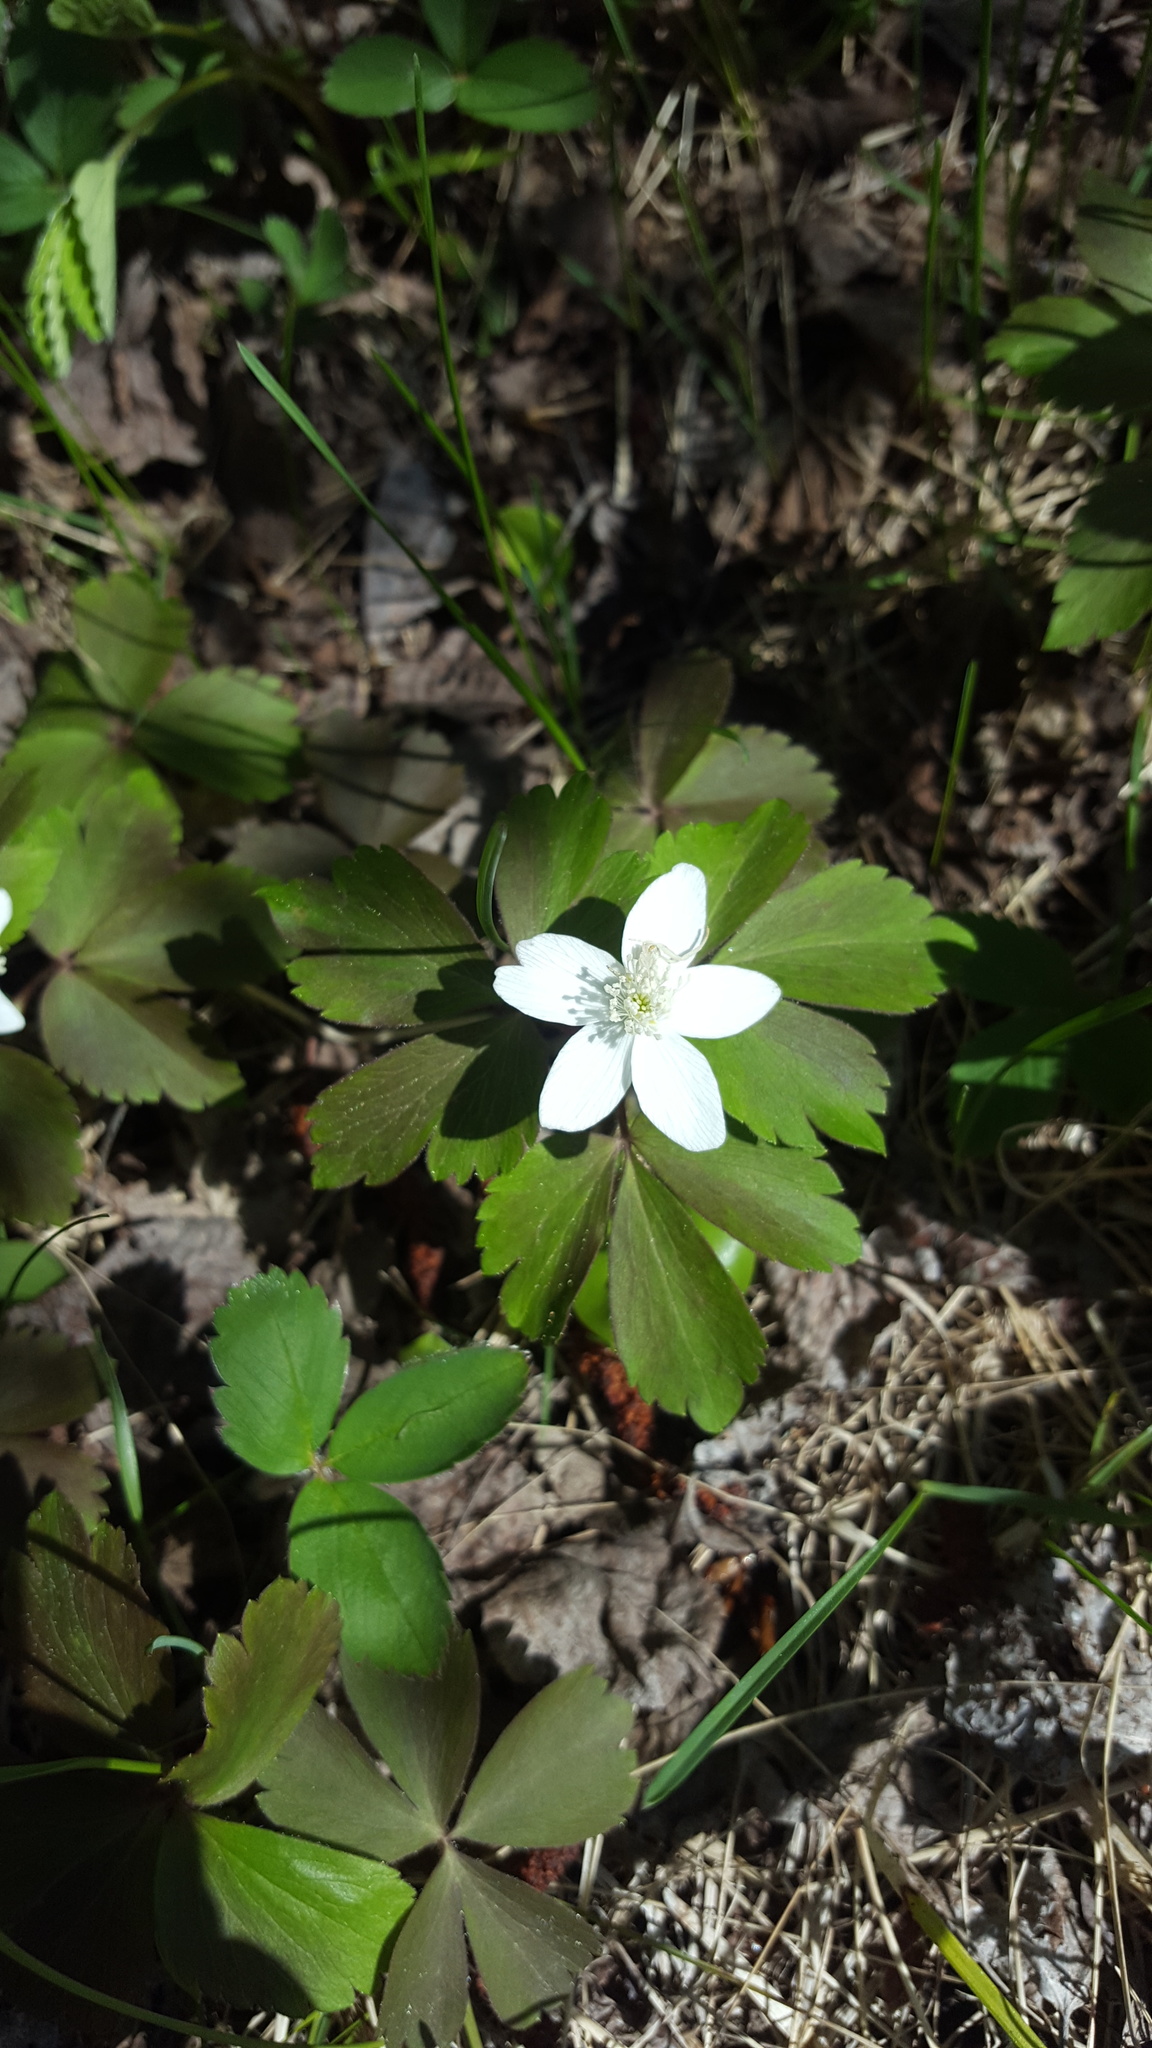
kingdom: Plantae
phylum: Tracheophyta
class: Magnoliopsida
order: Ranunculales
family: Ranunculaceae
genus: Anemone
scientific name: Anemone quinquefolia
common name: Wood anemone
